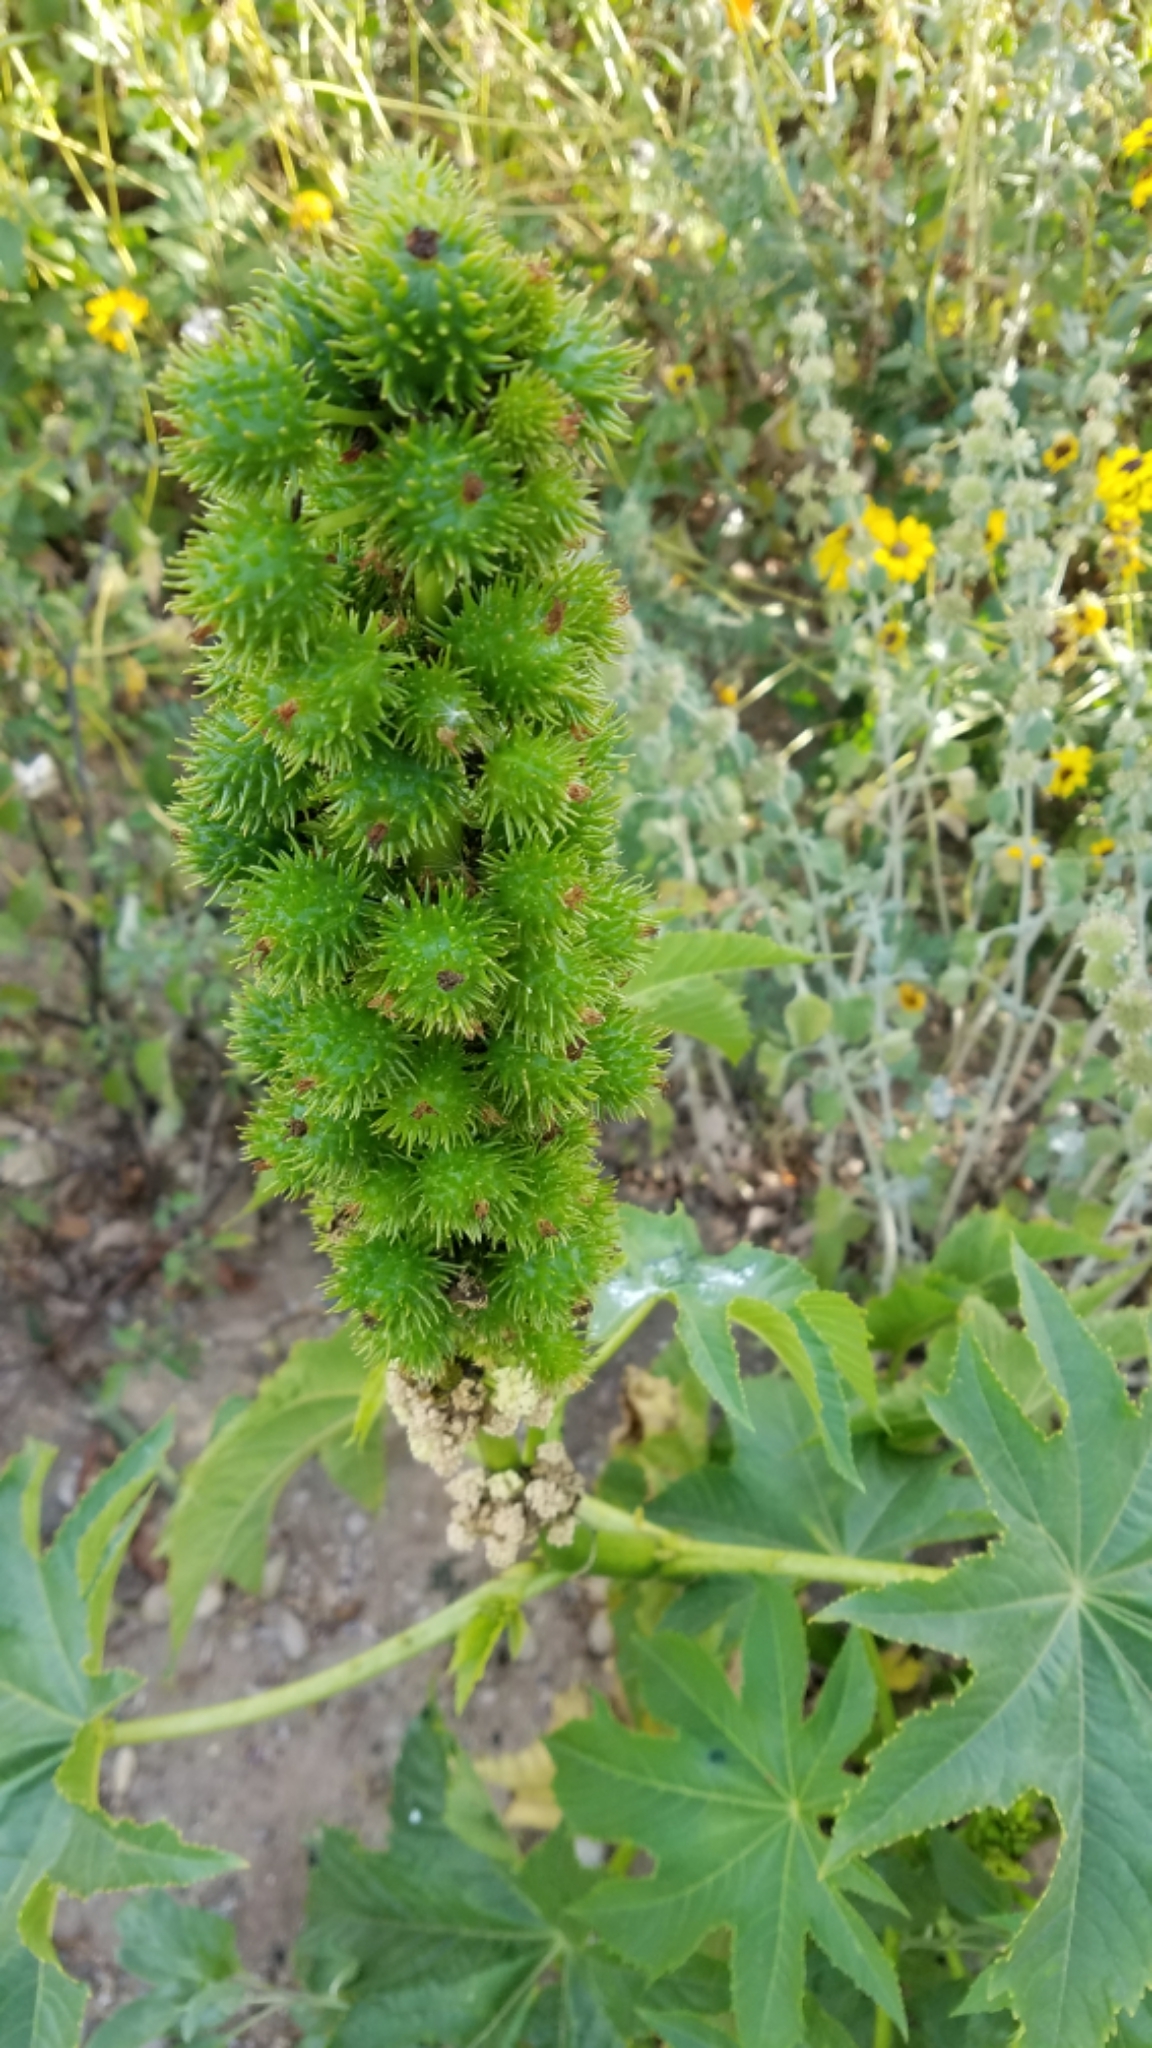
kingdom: Plantae
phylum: Tracheophyta
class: Magnoliopsida
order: Malpighiales
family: Euphorbiaceae
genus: Ricinus
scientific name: Ricinus communis
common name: Castor-oil-plant
